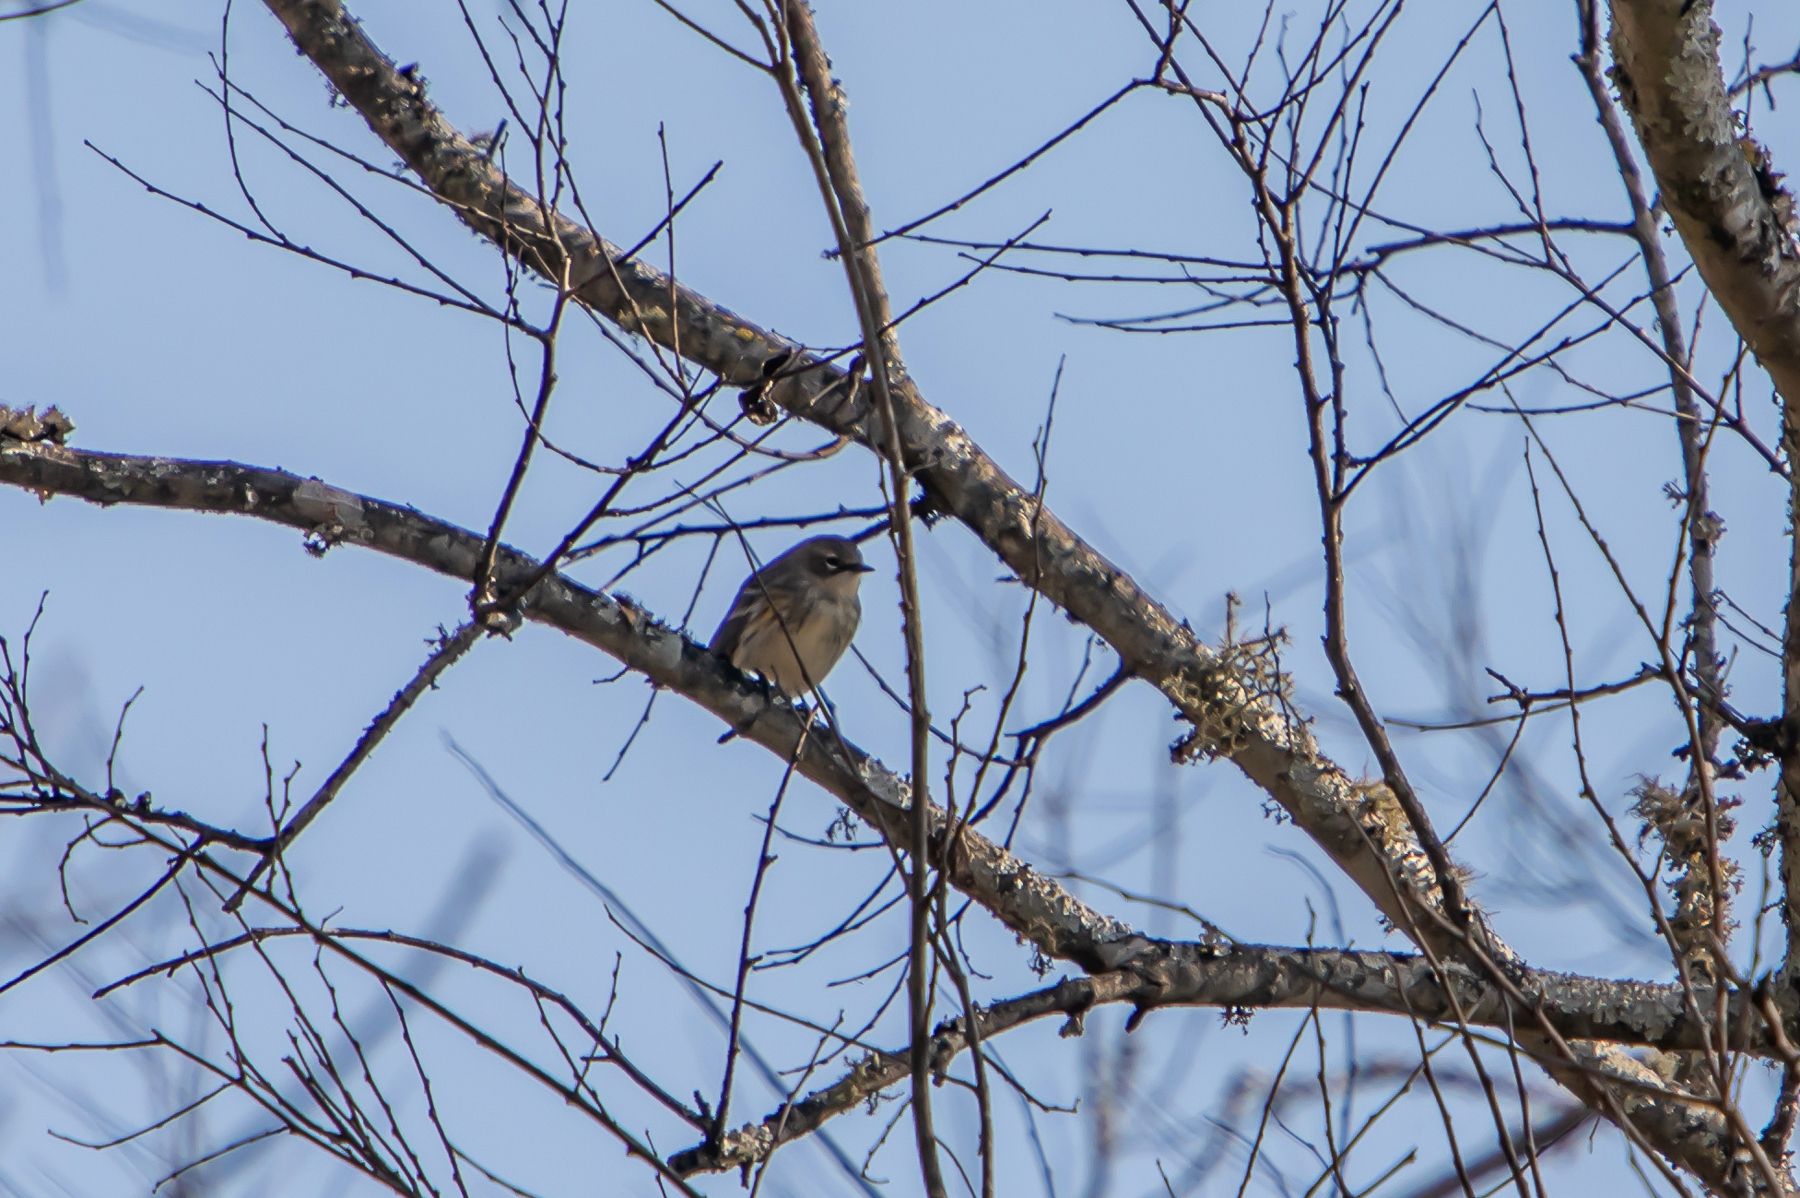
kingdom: Animalia
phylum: Chordata
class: Aves
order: Passeriformes
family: Parulidae
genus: Setophaga
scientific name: Setophaga coronata
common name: Myrtle warbler
